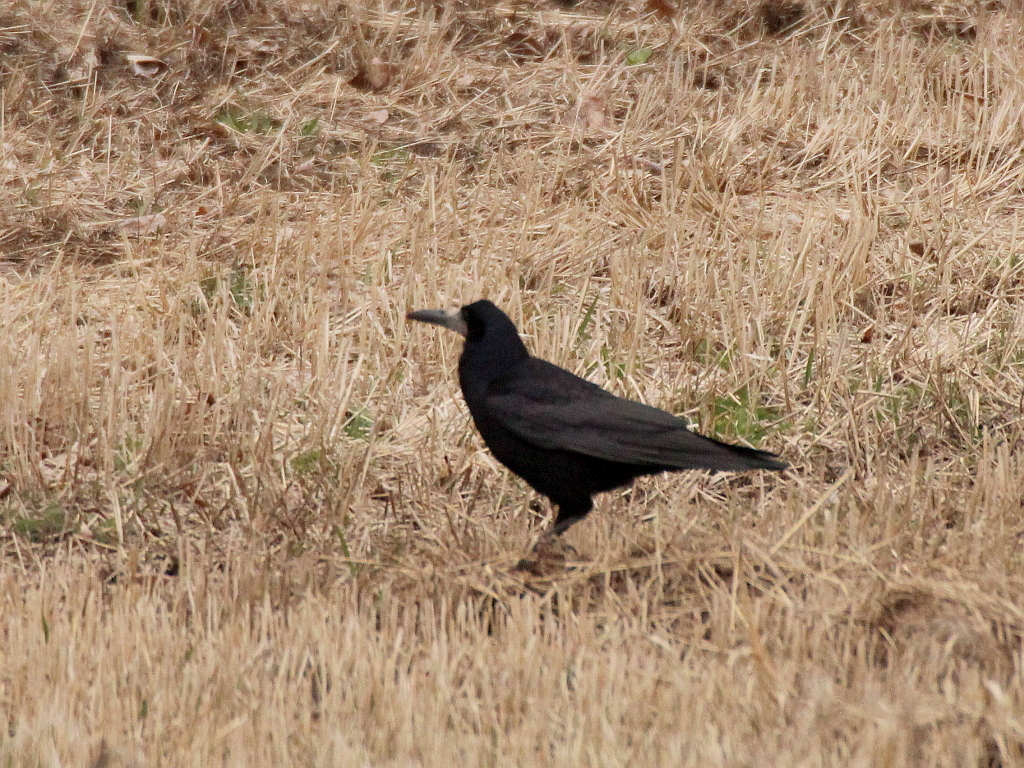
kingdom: Animalia
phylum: Chordata
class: Aves
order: Passeriformes
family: Corvidae
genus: Corvus
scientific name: Corvus frugilegus
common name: Rook
